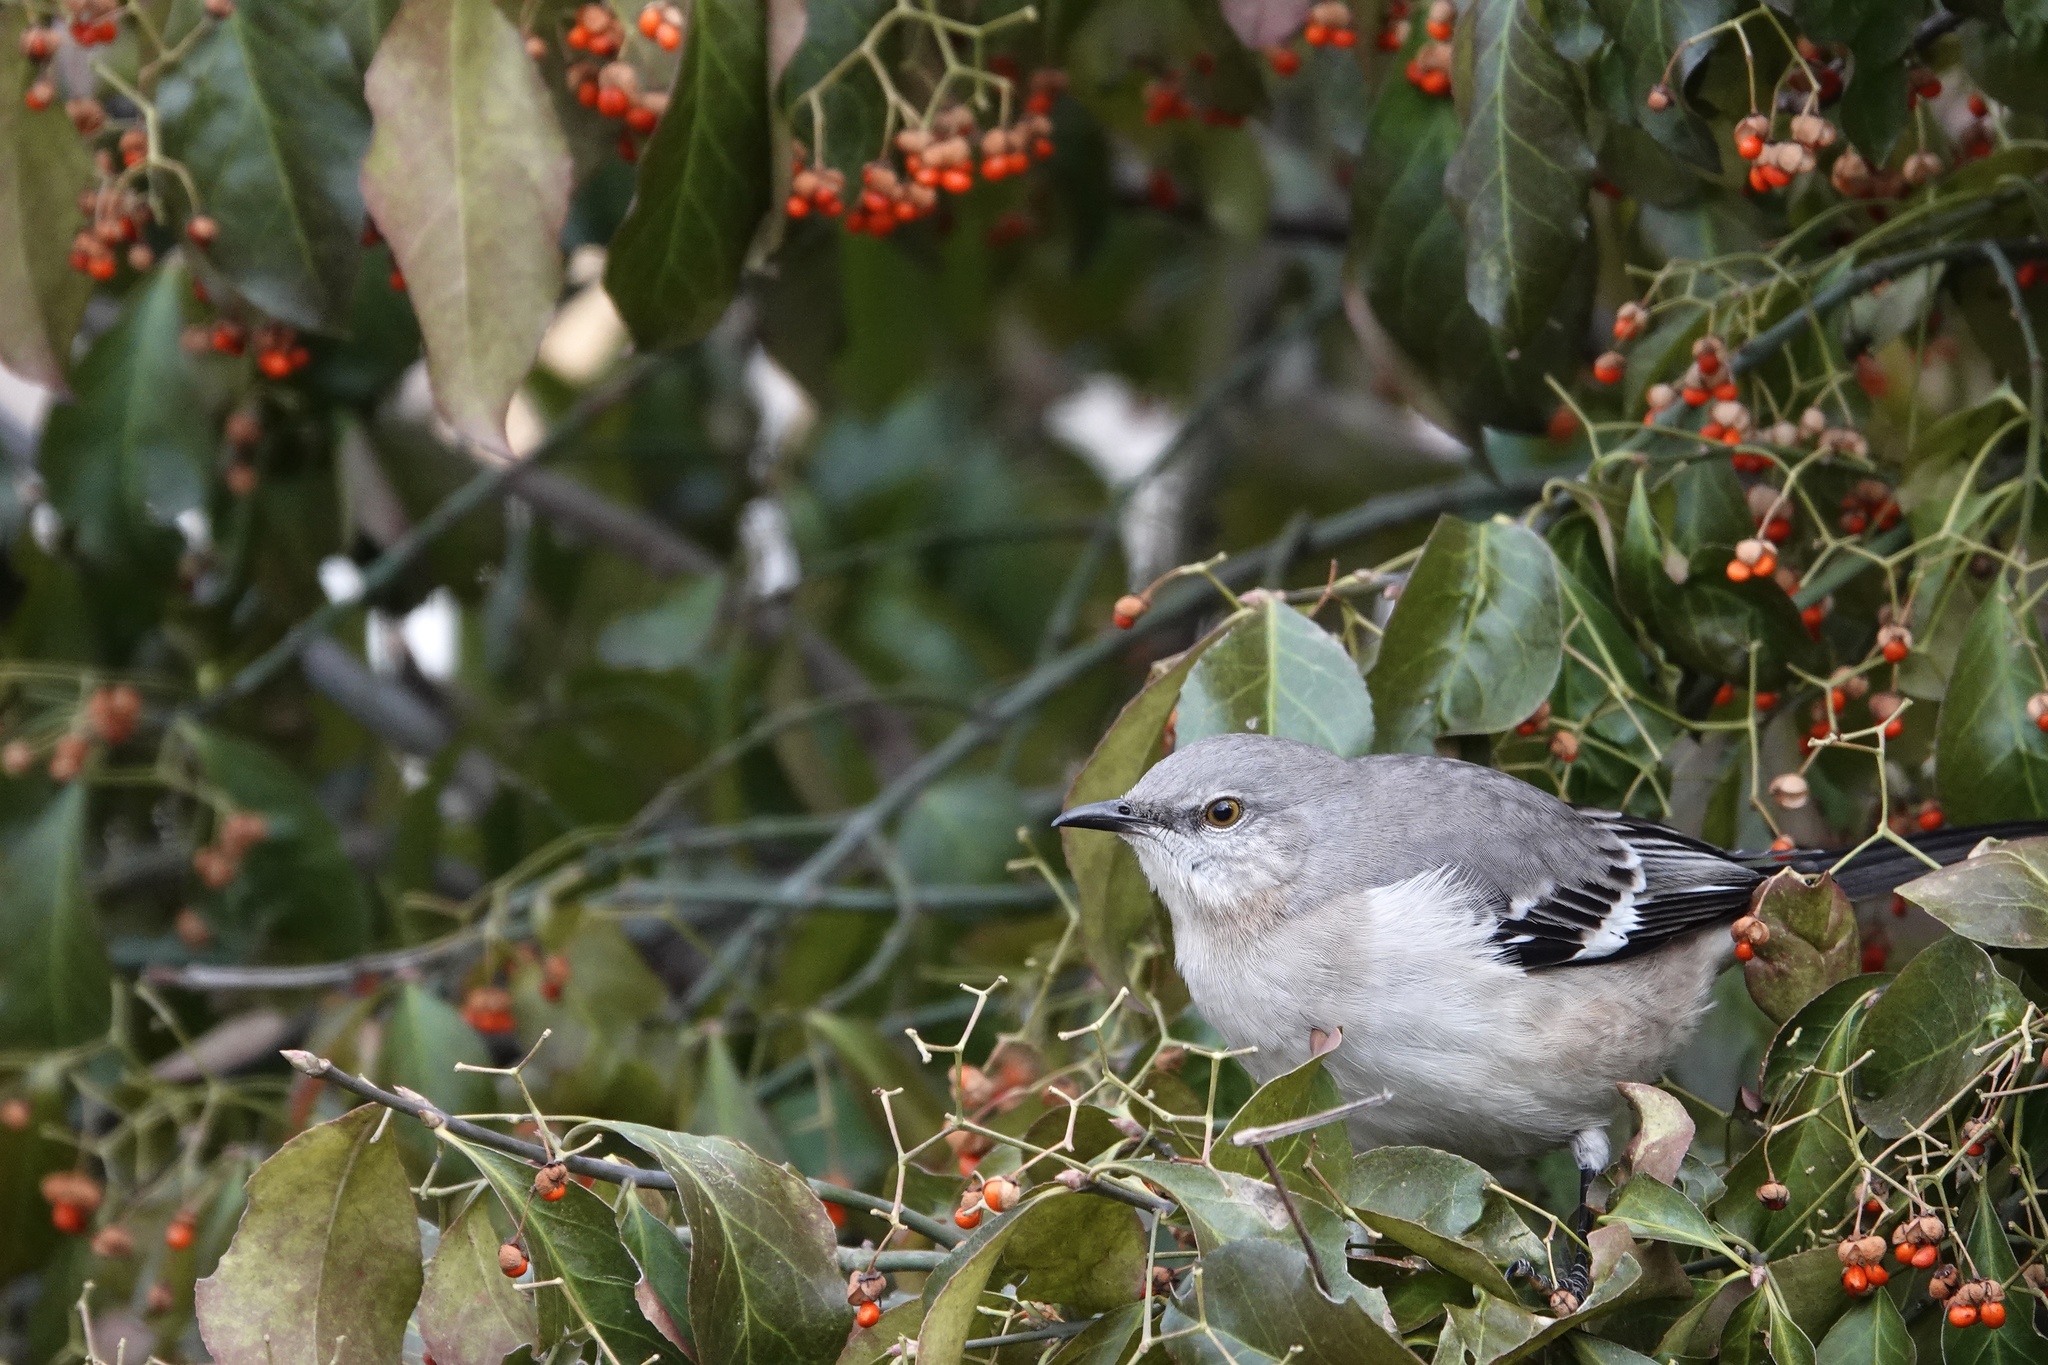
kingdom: Animalia
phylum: Chordata
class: Aves
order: Passeriformes
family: Mimidae
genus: Mimus
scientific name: Mimus polyglottos
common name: Northern mockingbird
